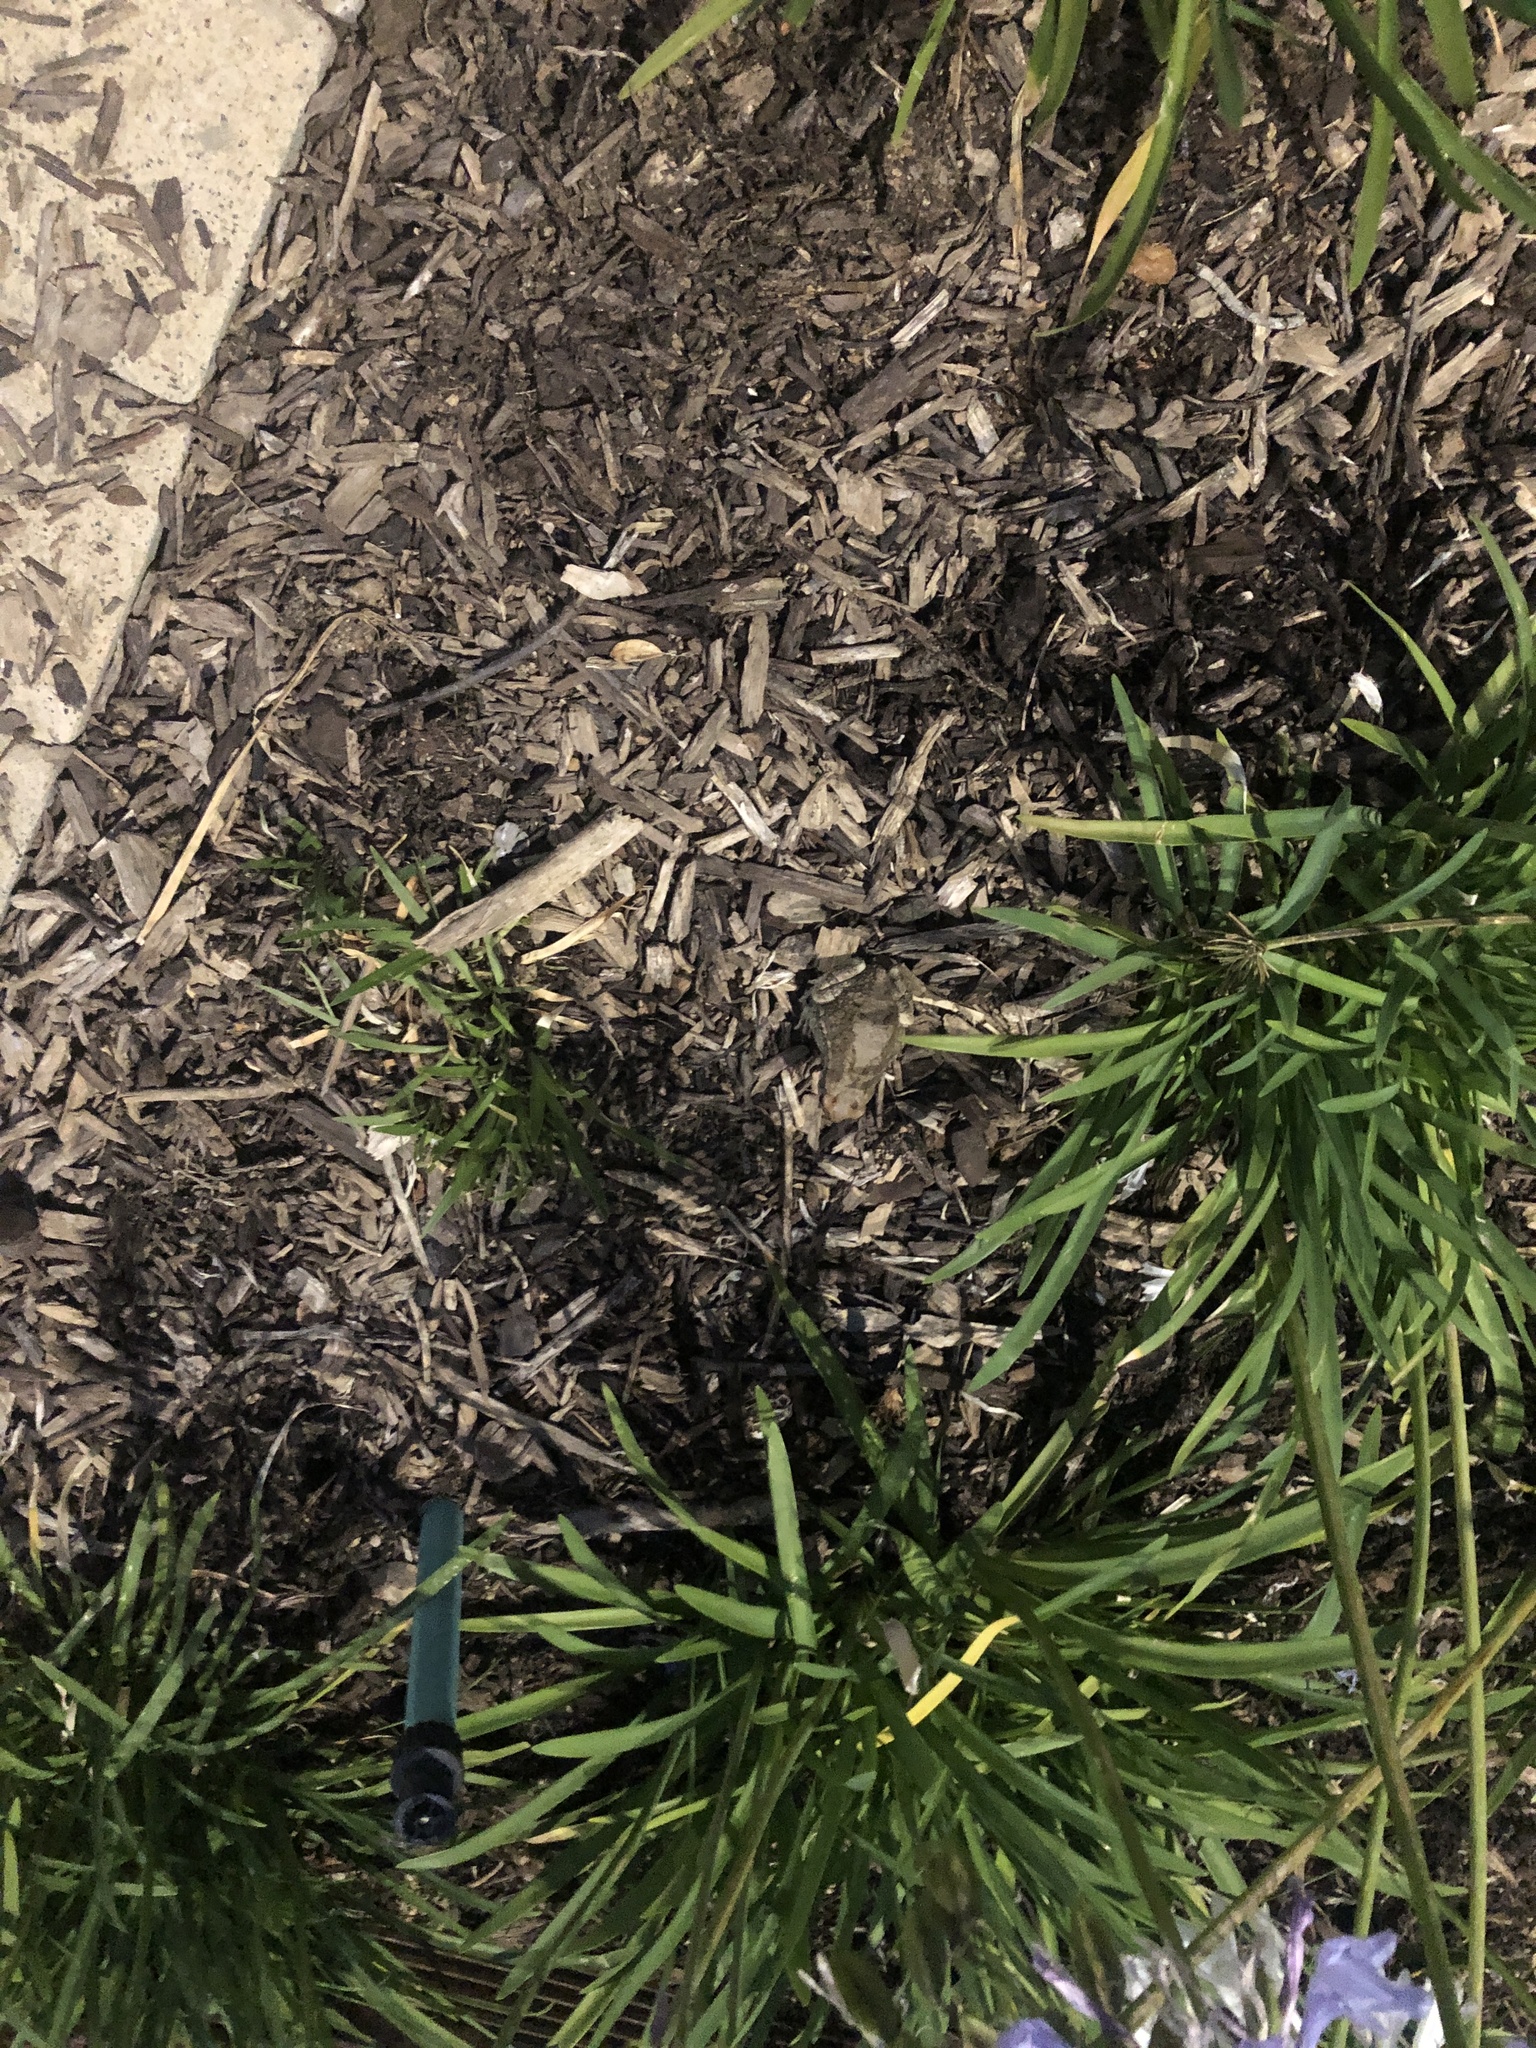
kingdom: Animalia
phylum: Chordata
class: Amphibia
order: Anura
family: Bufonidae
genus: Schismaderma
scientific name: Schismaderma carens
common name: African split-skin toad
